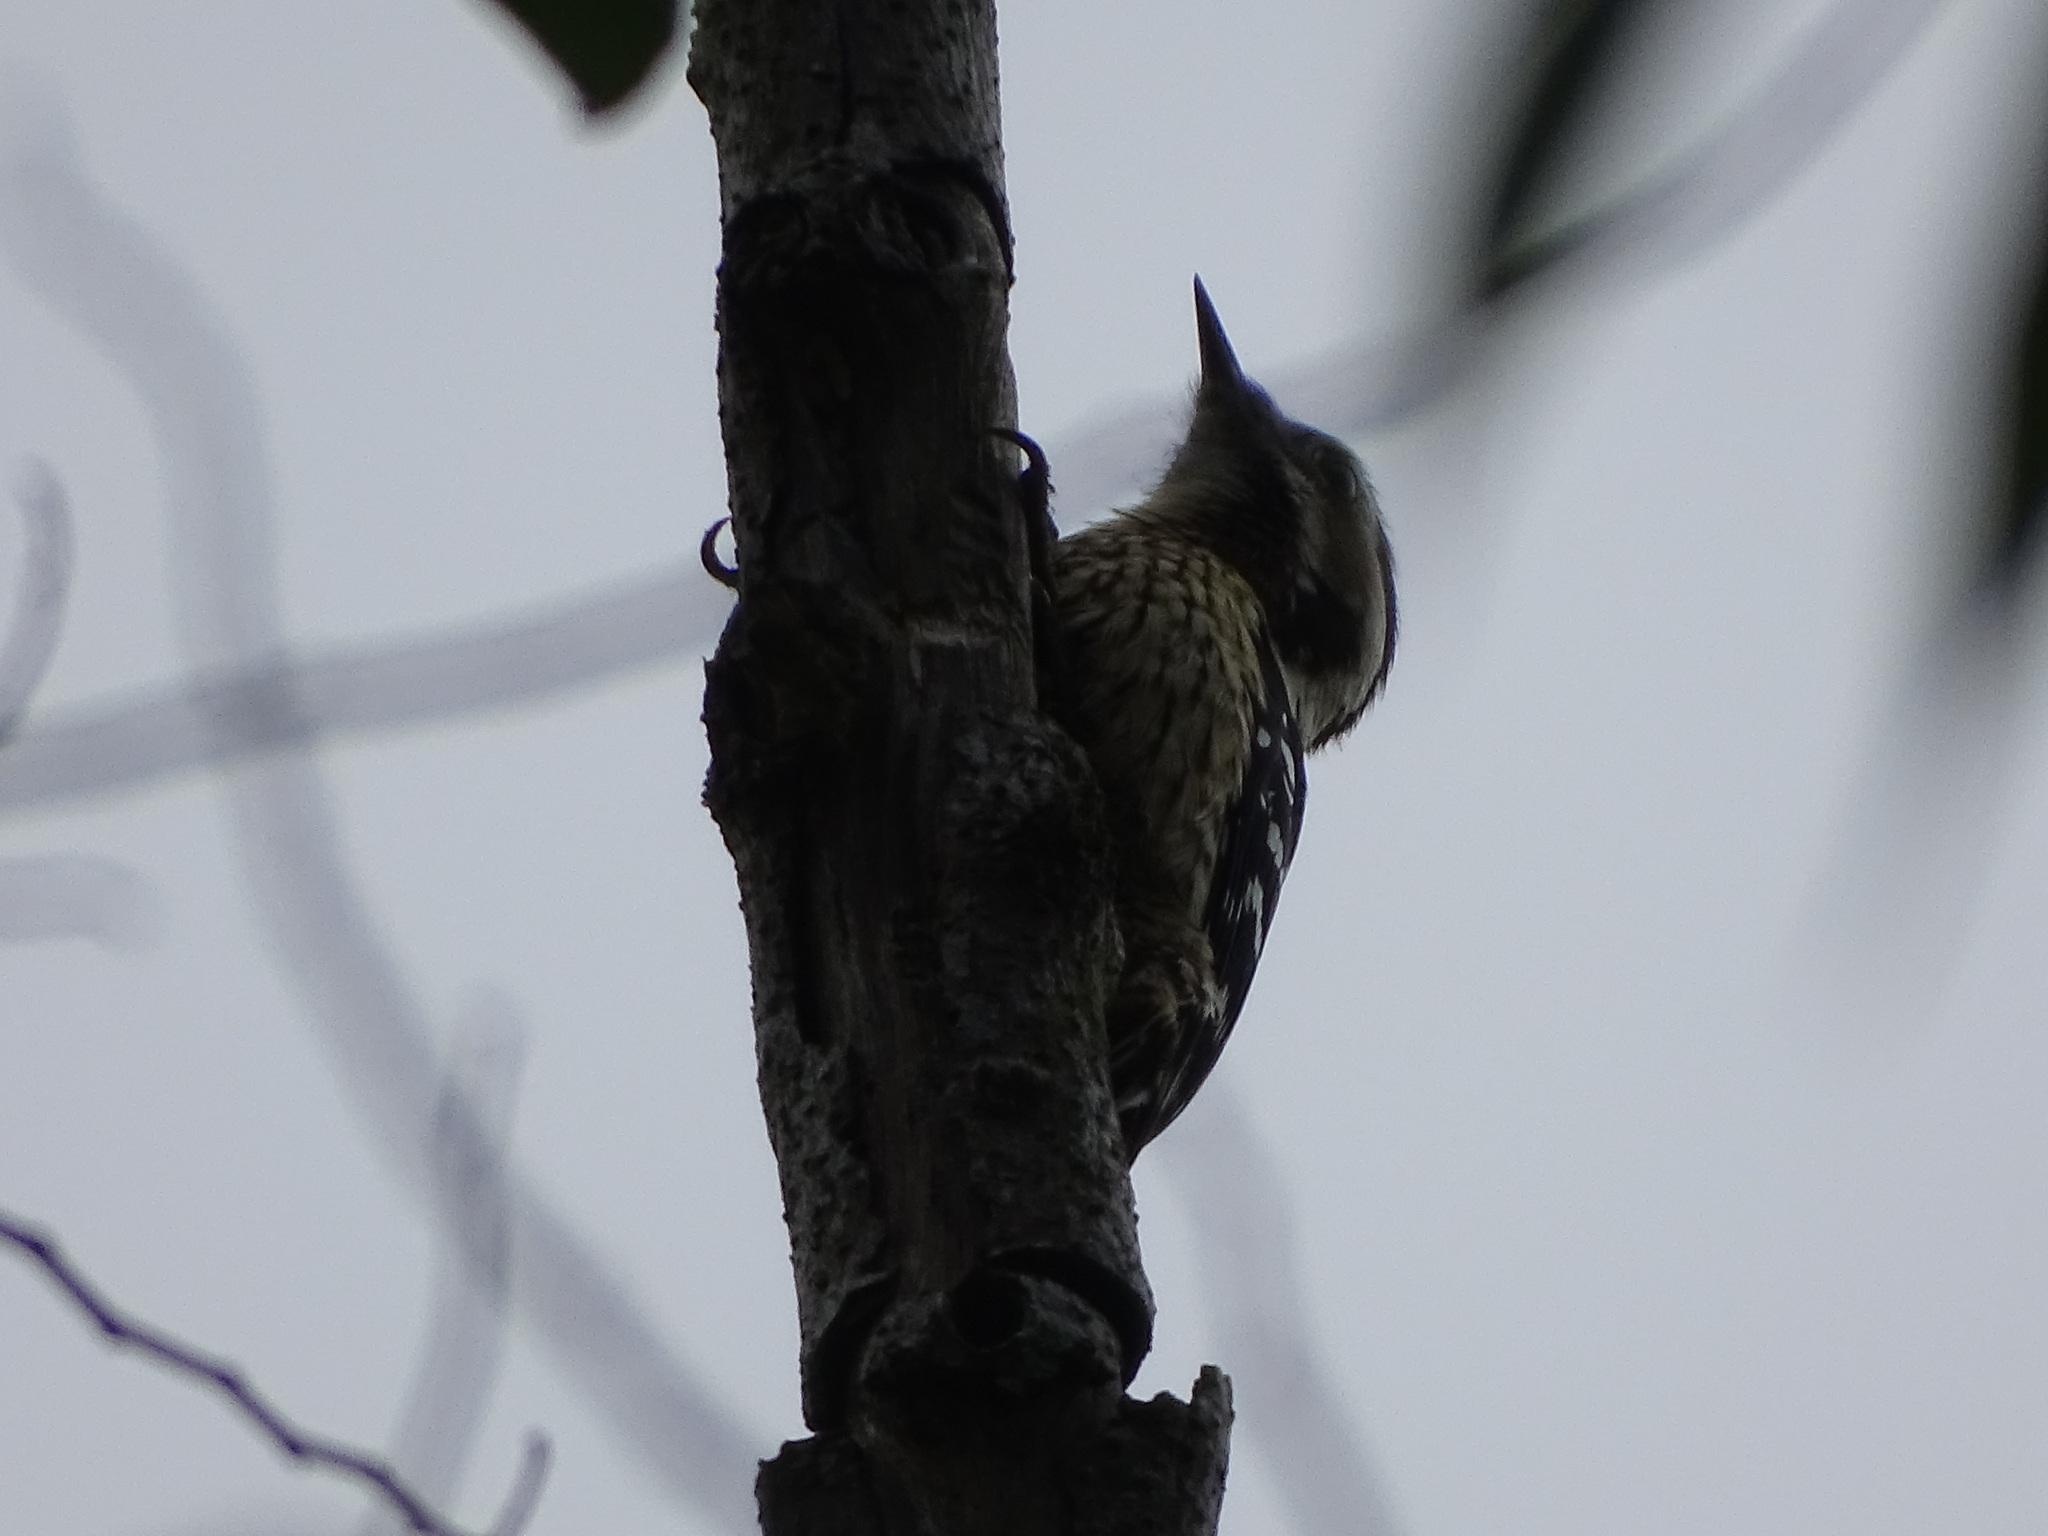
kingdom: Animalia
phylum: Chordata
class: Aves
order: Piciformes
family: Picidae
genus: Yungipicus
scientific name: Yungipicus canicapillus
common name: Grey-capped pygmy woodpecker
